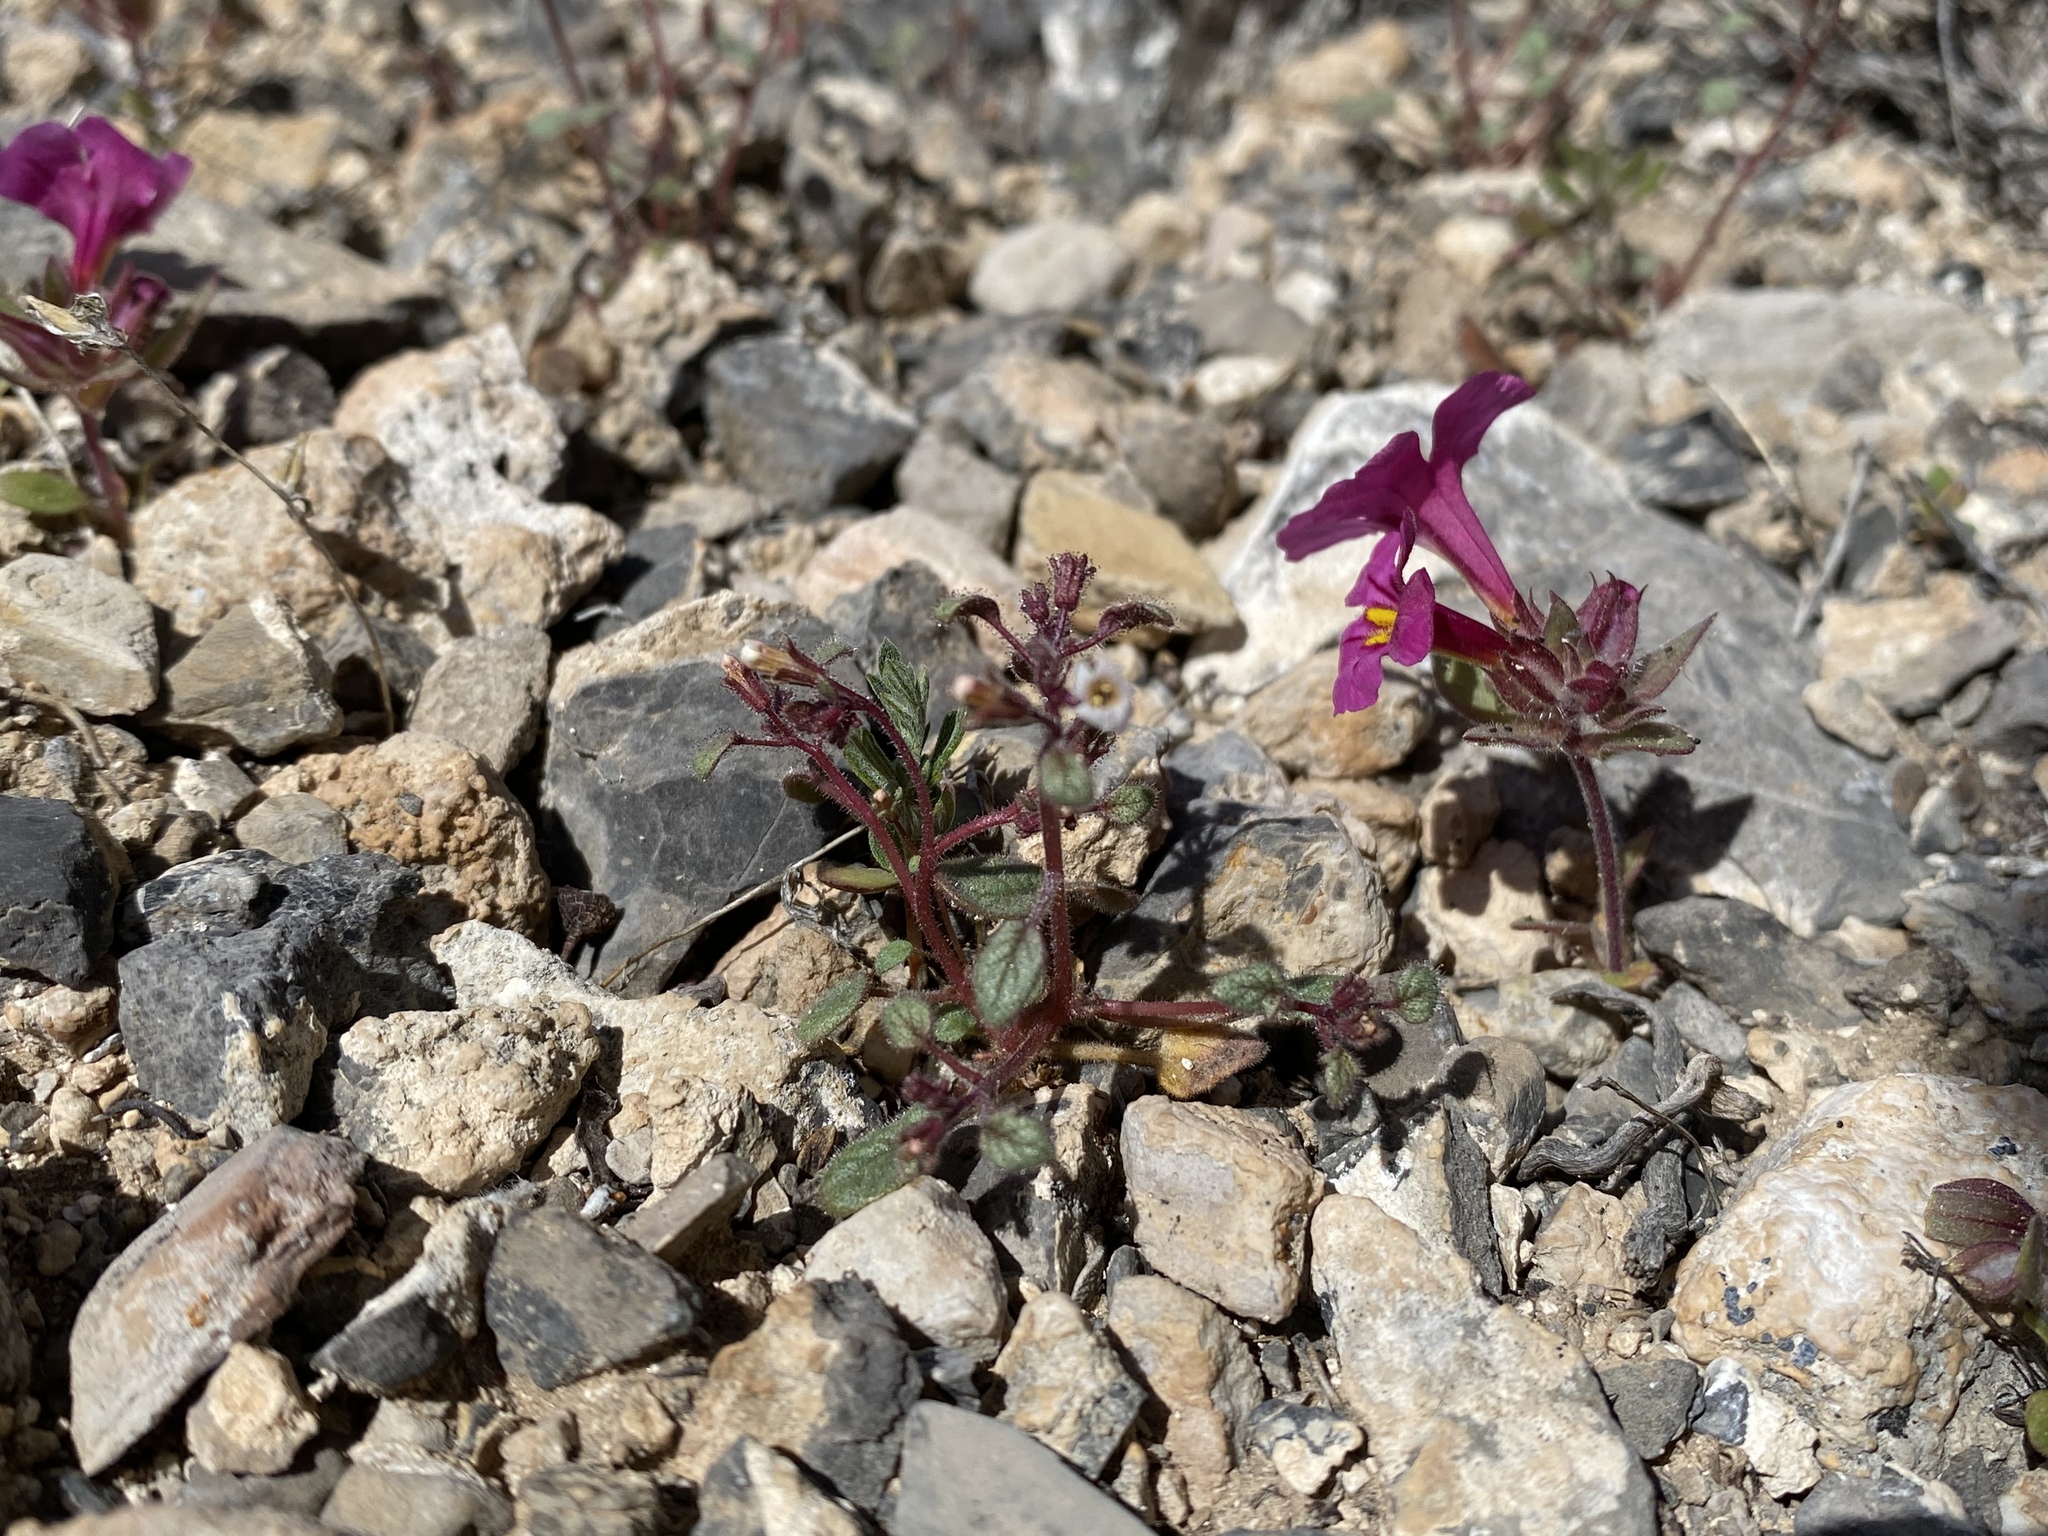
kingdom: Plantae
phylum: Tracheophyta
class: Magnoliopsida
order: Boraginales
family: Hydrophyllaceae
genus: Phacelia
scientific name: Phacelia barnebyana
